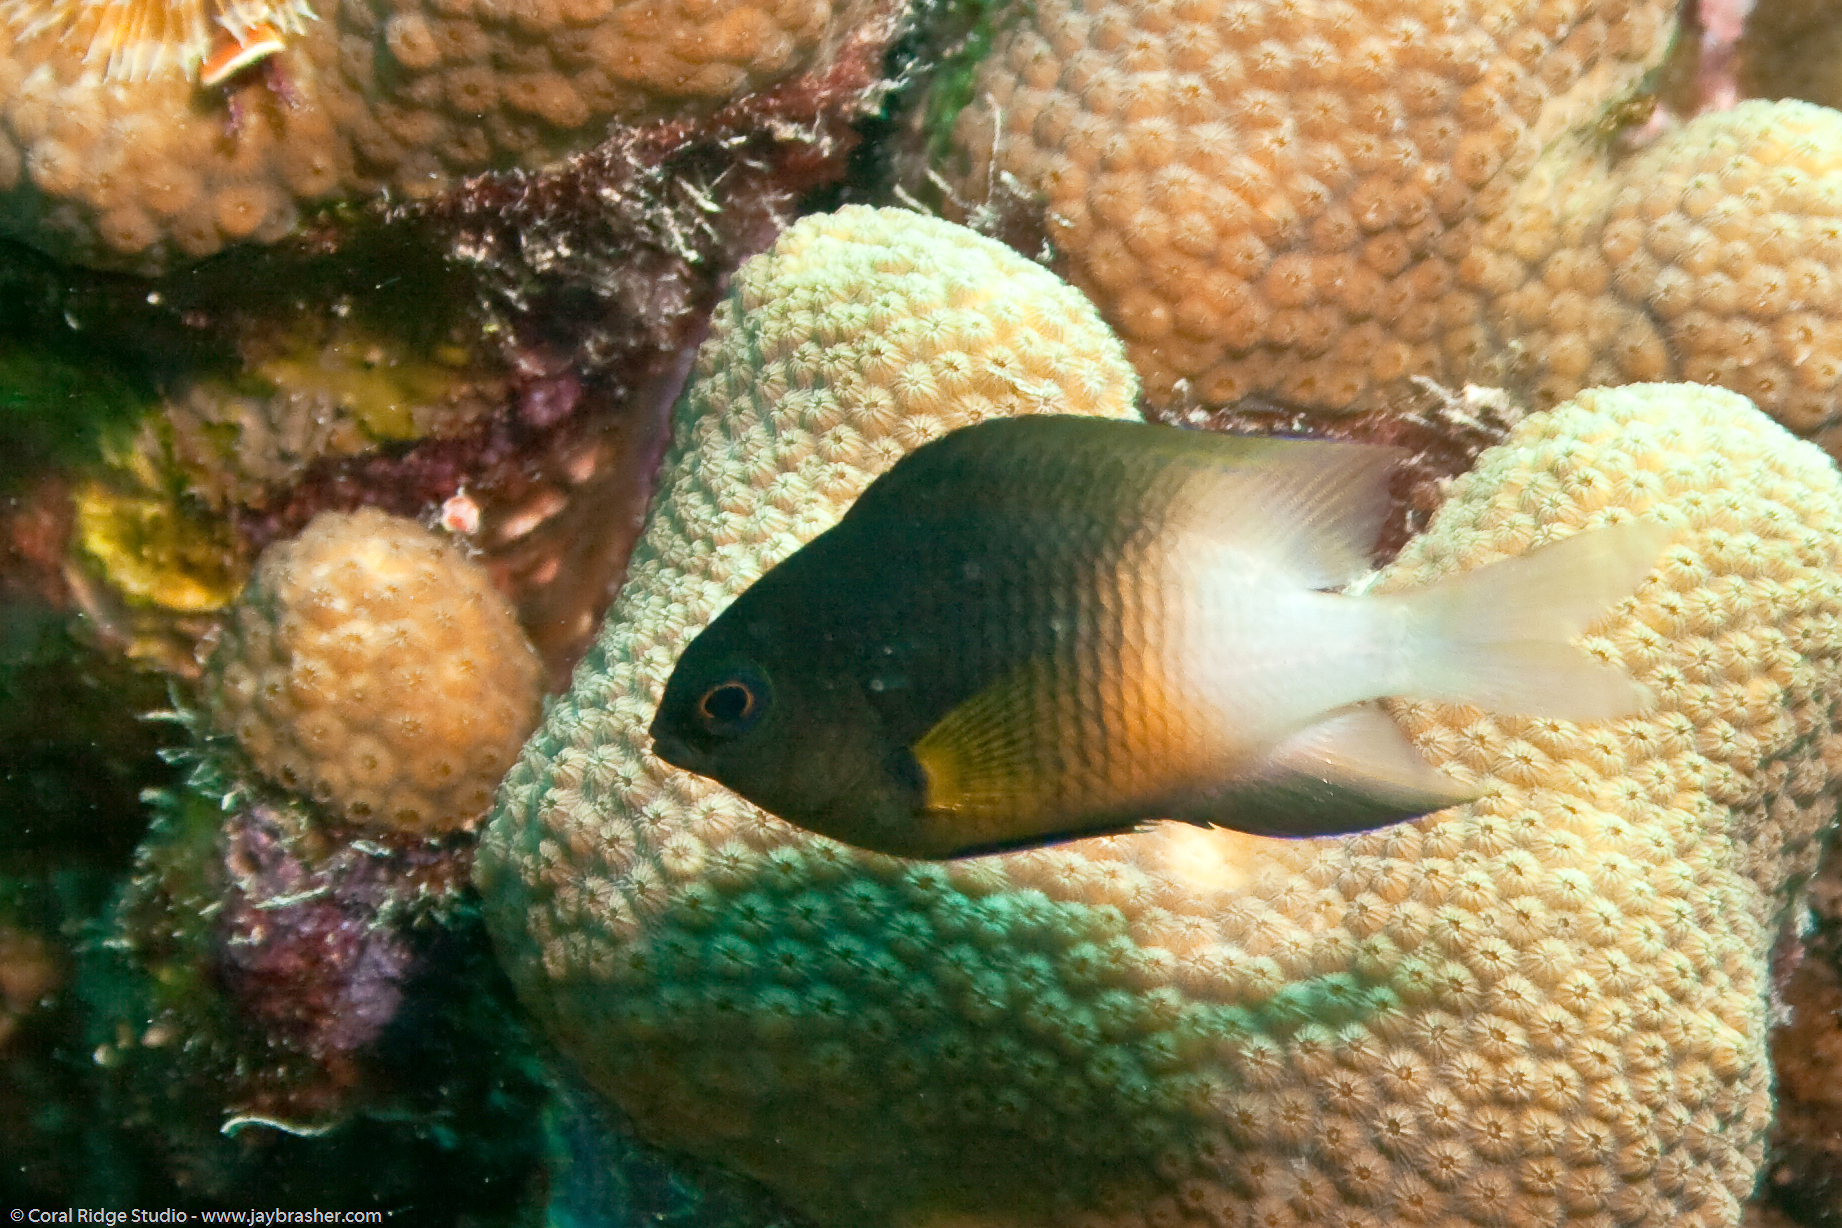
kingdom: Animalia
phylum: Chordata
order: Perciformes
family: Pomacentridae
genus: Stegastes
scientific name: Stegastes partitus
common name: Bicolor damselfish
